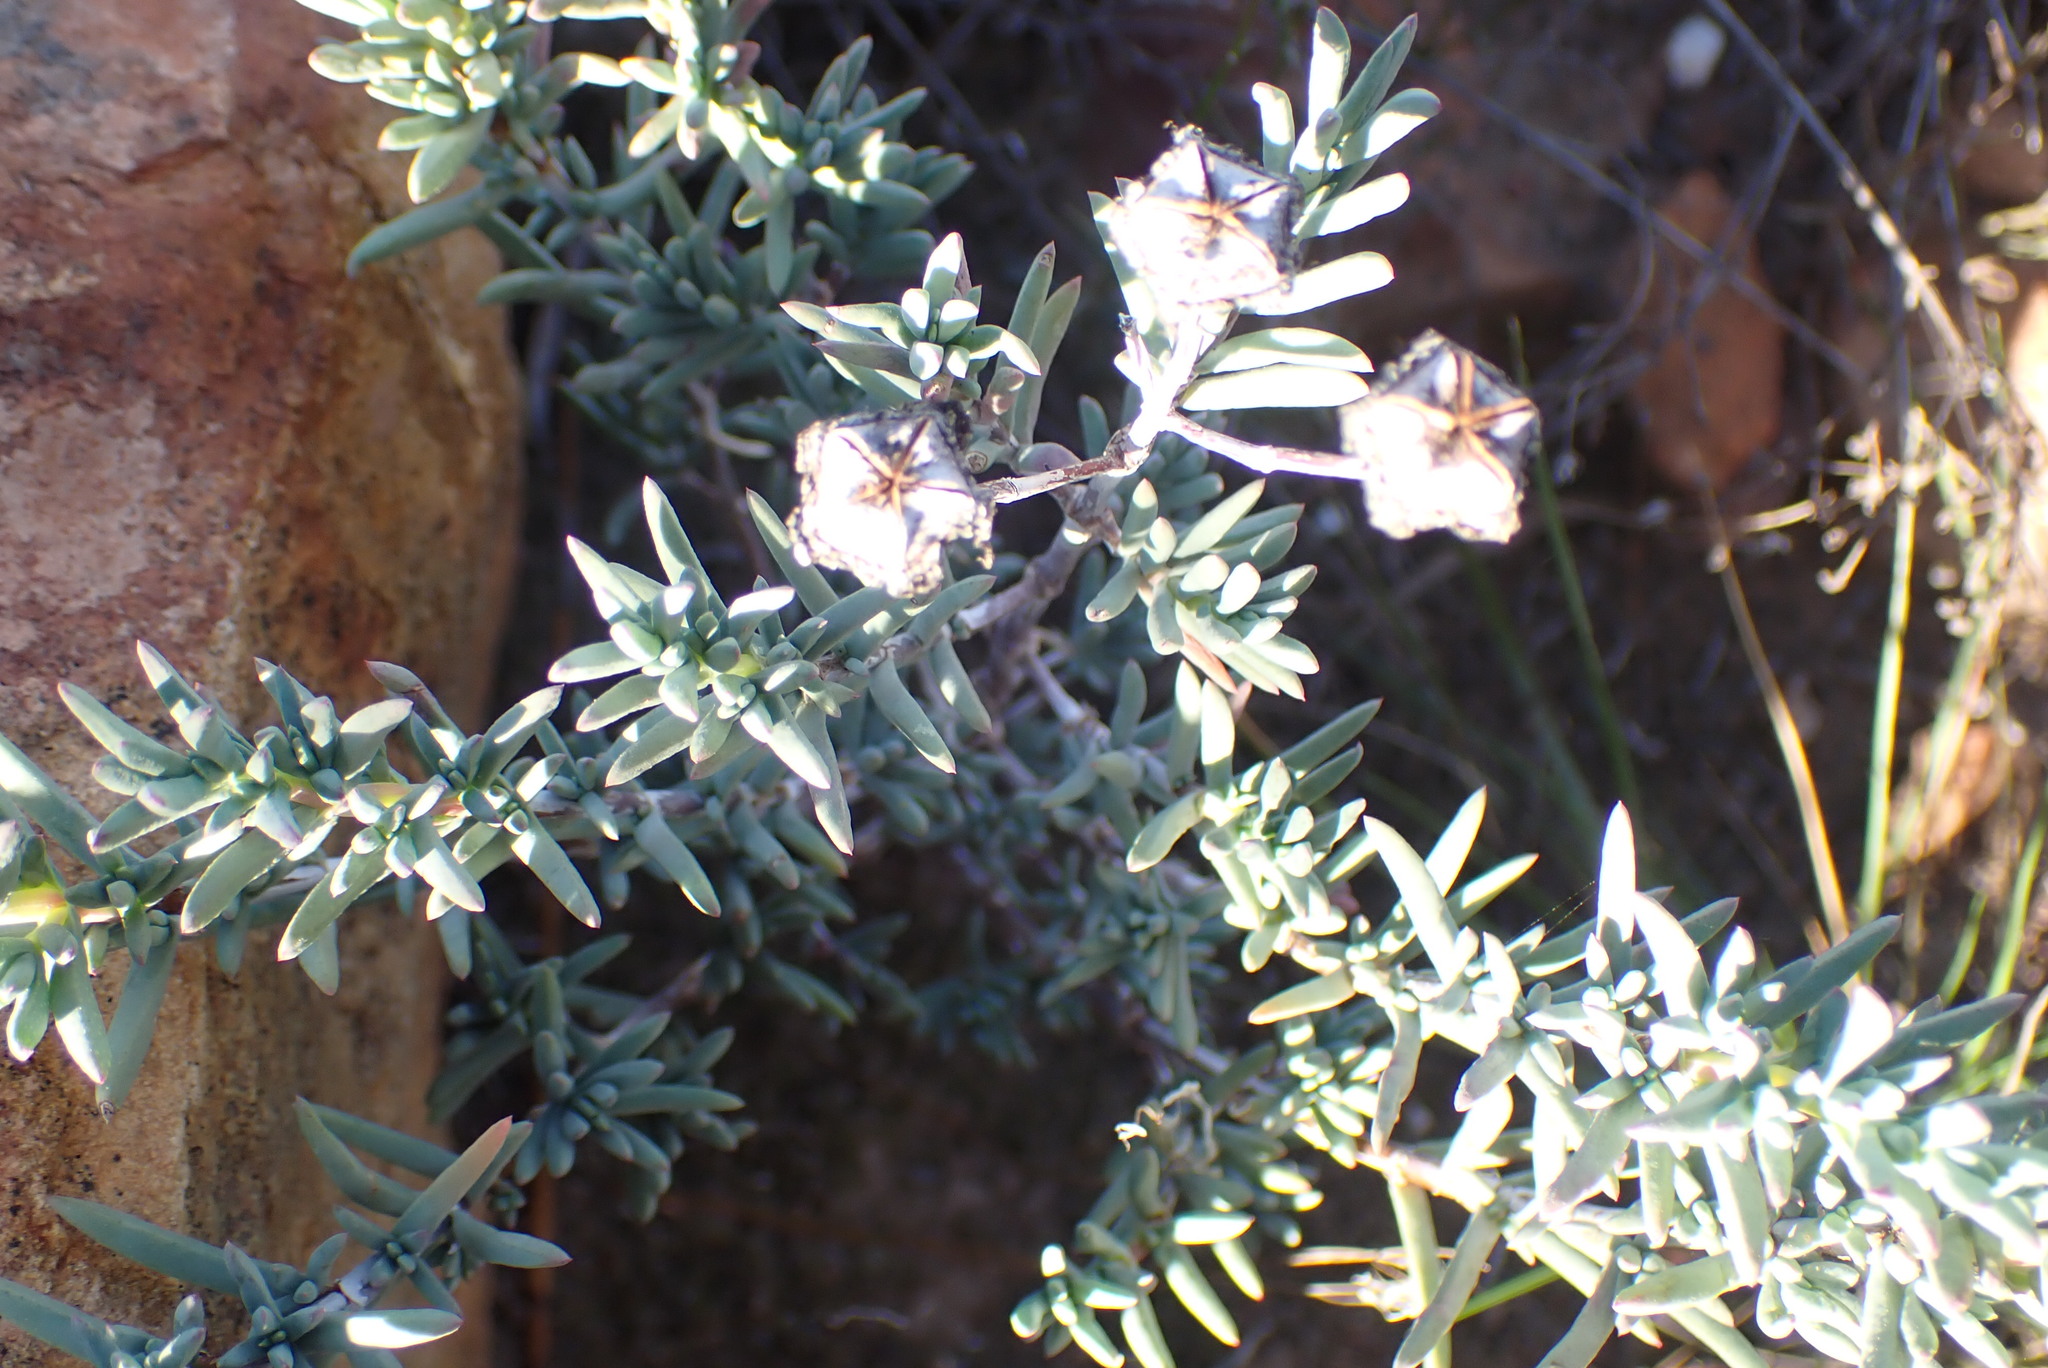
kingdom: Plantae
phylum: Tracheophyta
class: Magnoliopsida
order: Caryophyllales
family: Aizoaceae
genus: Lampranthus
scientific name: Lampranthus elegans
